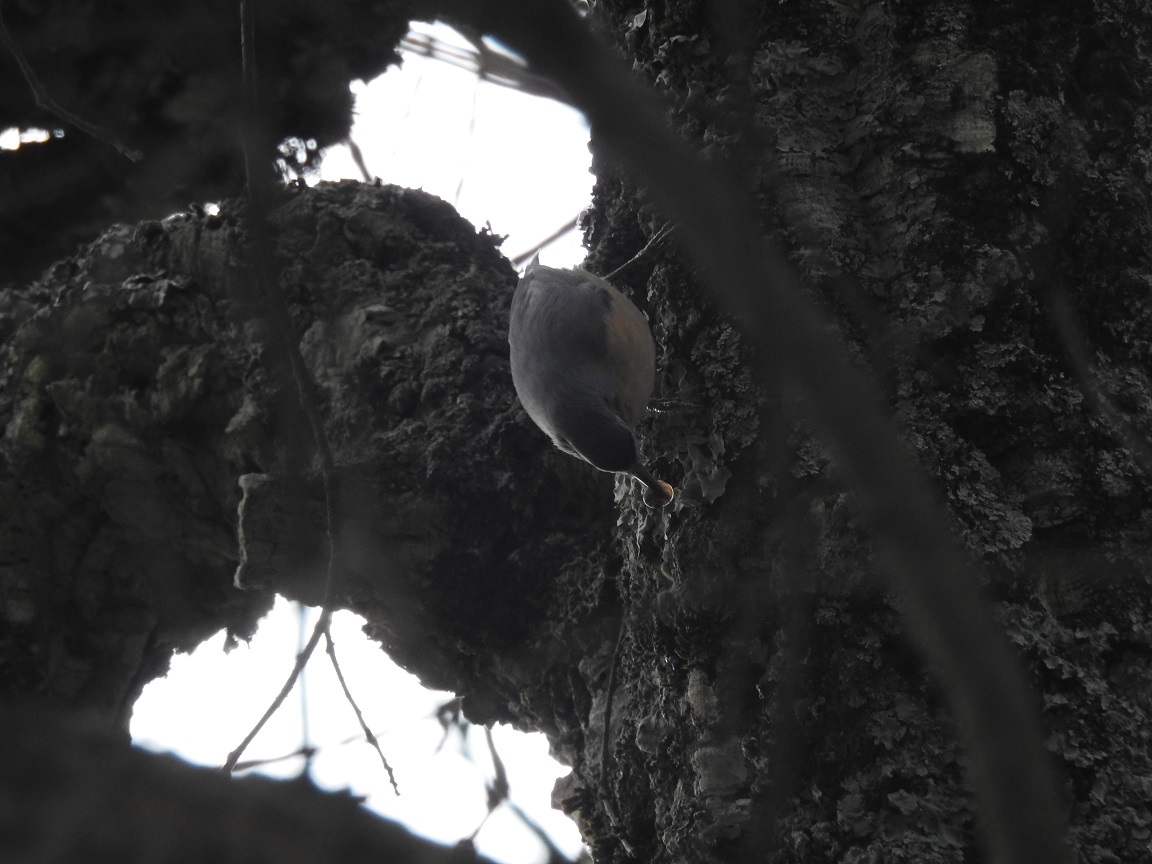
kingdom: Animalia
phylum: Chordata
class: Aves
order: Passeriformes
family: Sittidae
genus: Sitta
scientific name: Sitta ledanti
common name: Algerian nuthatch
